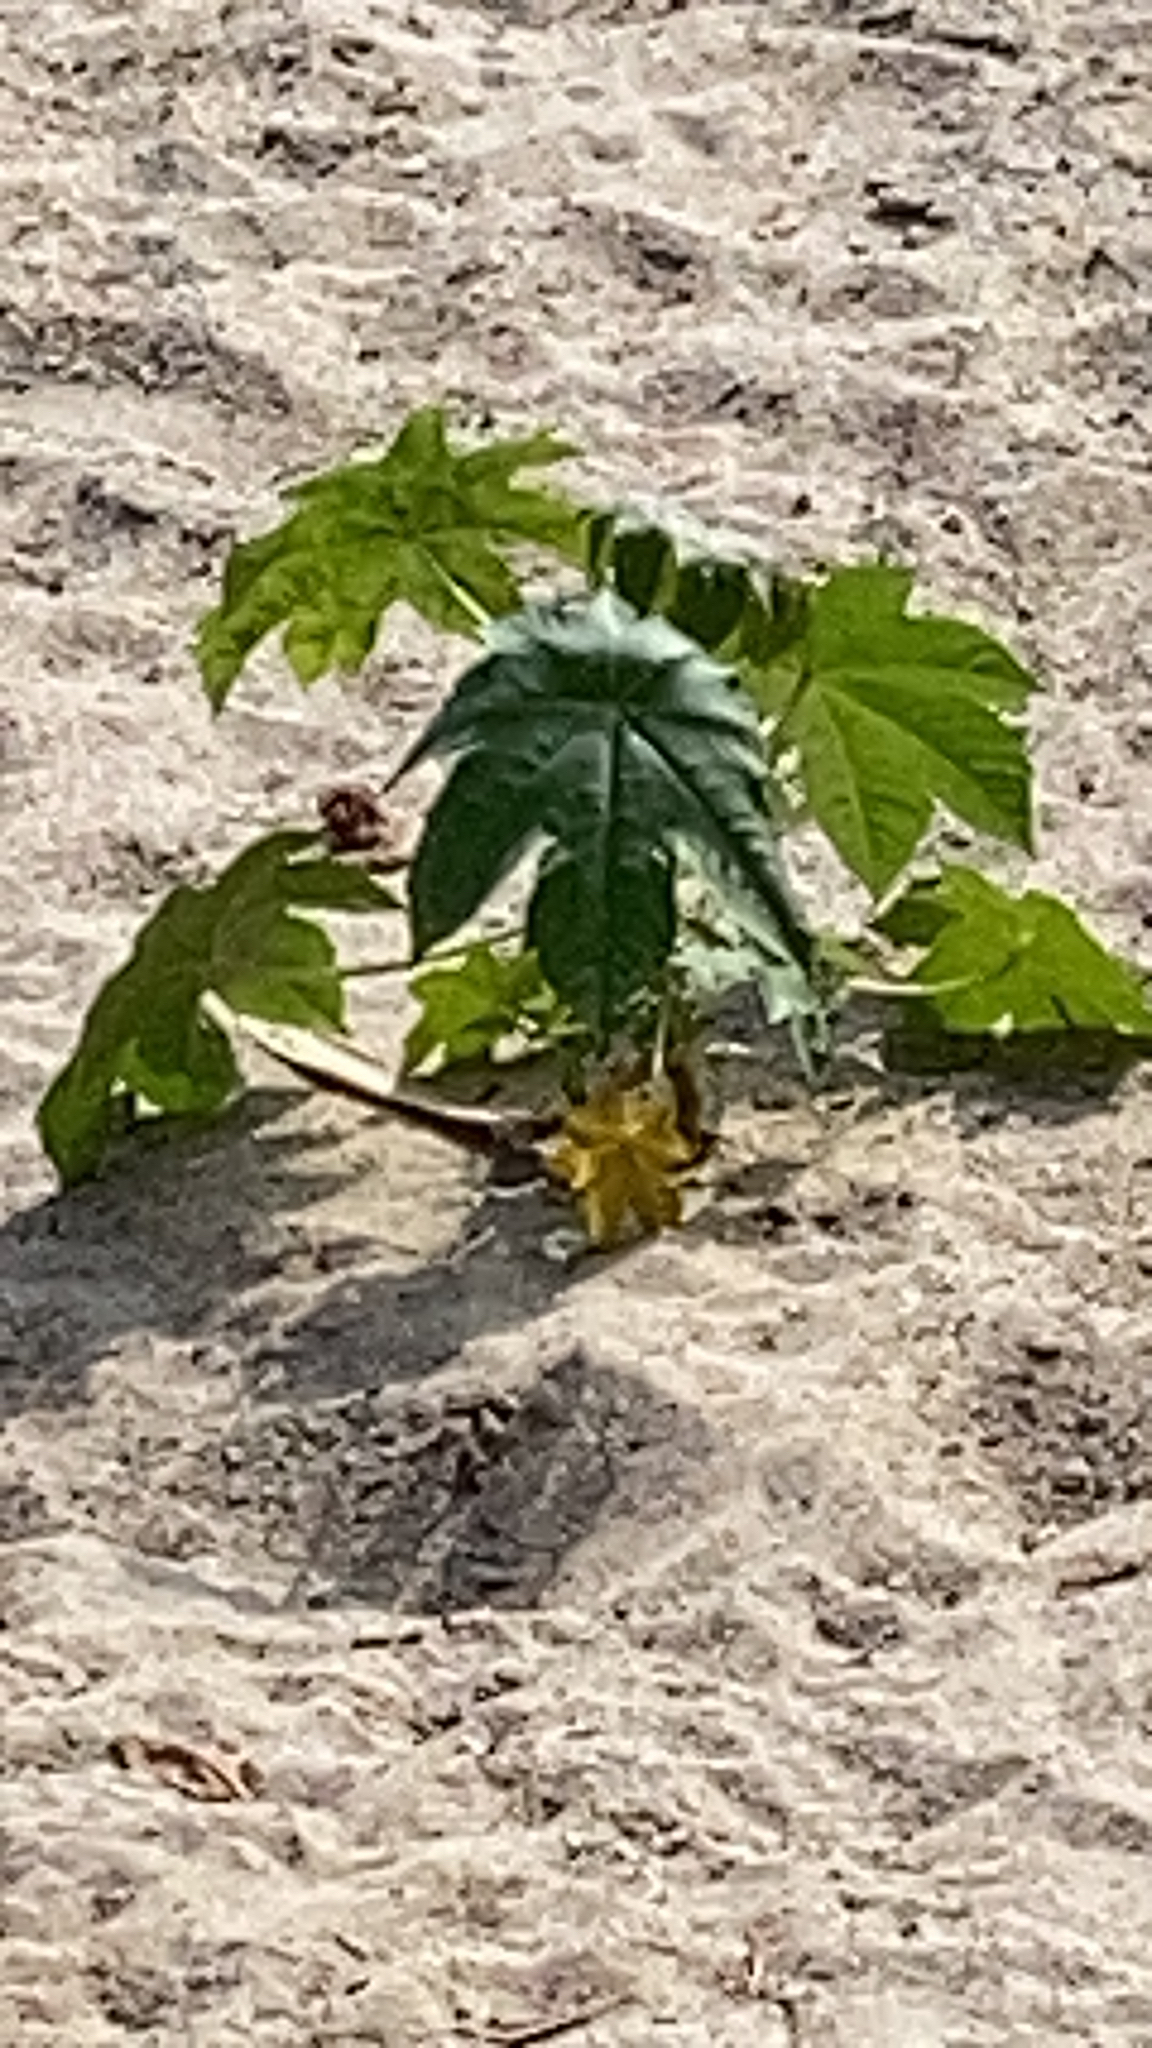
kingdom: Plantae
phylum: Tracheophyta
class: Magnoliopsida
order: Malpighiales
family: Euphorbiaceae
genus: Ricinus
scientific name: Ricinus communis
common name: Castor-oil-plant
